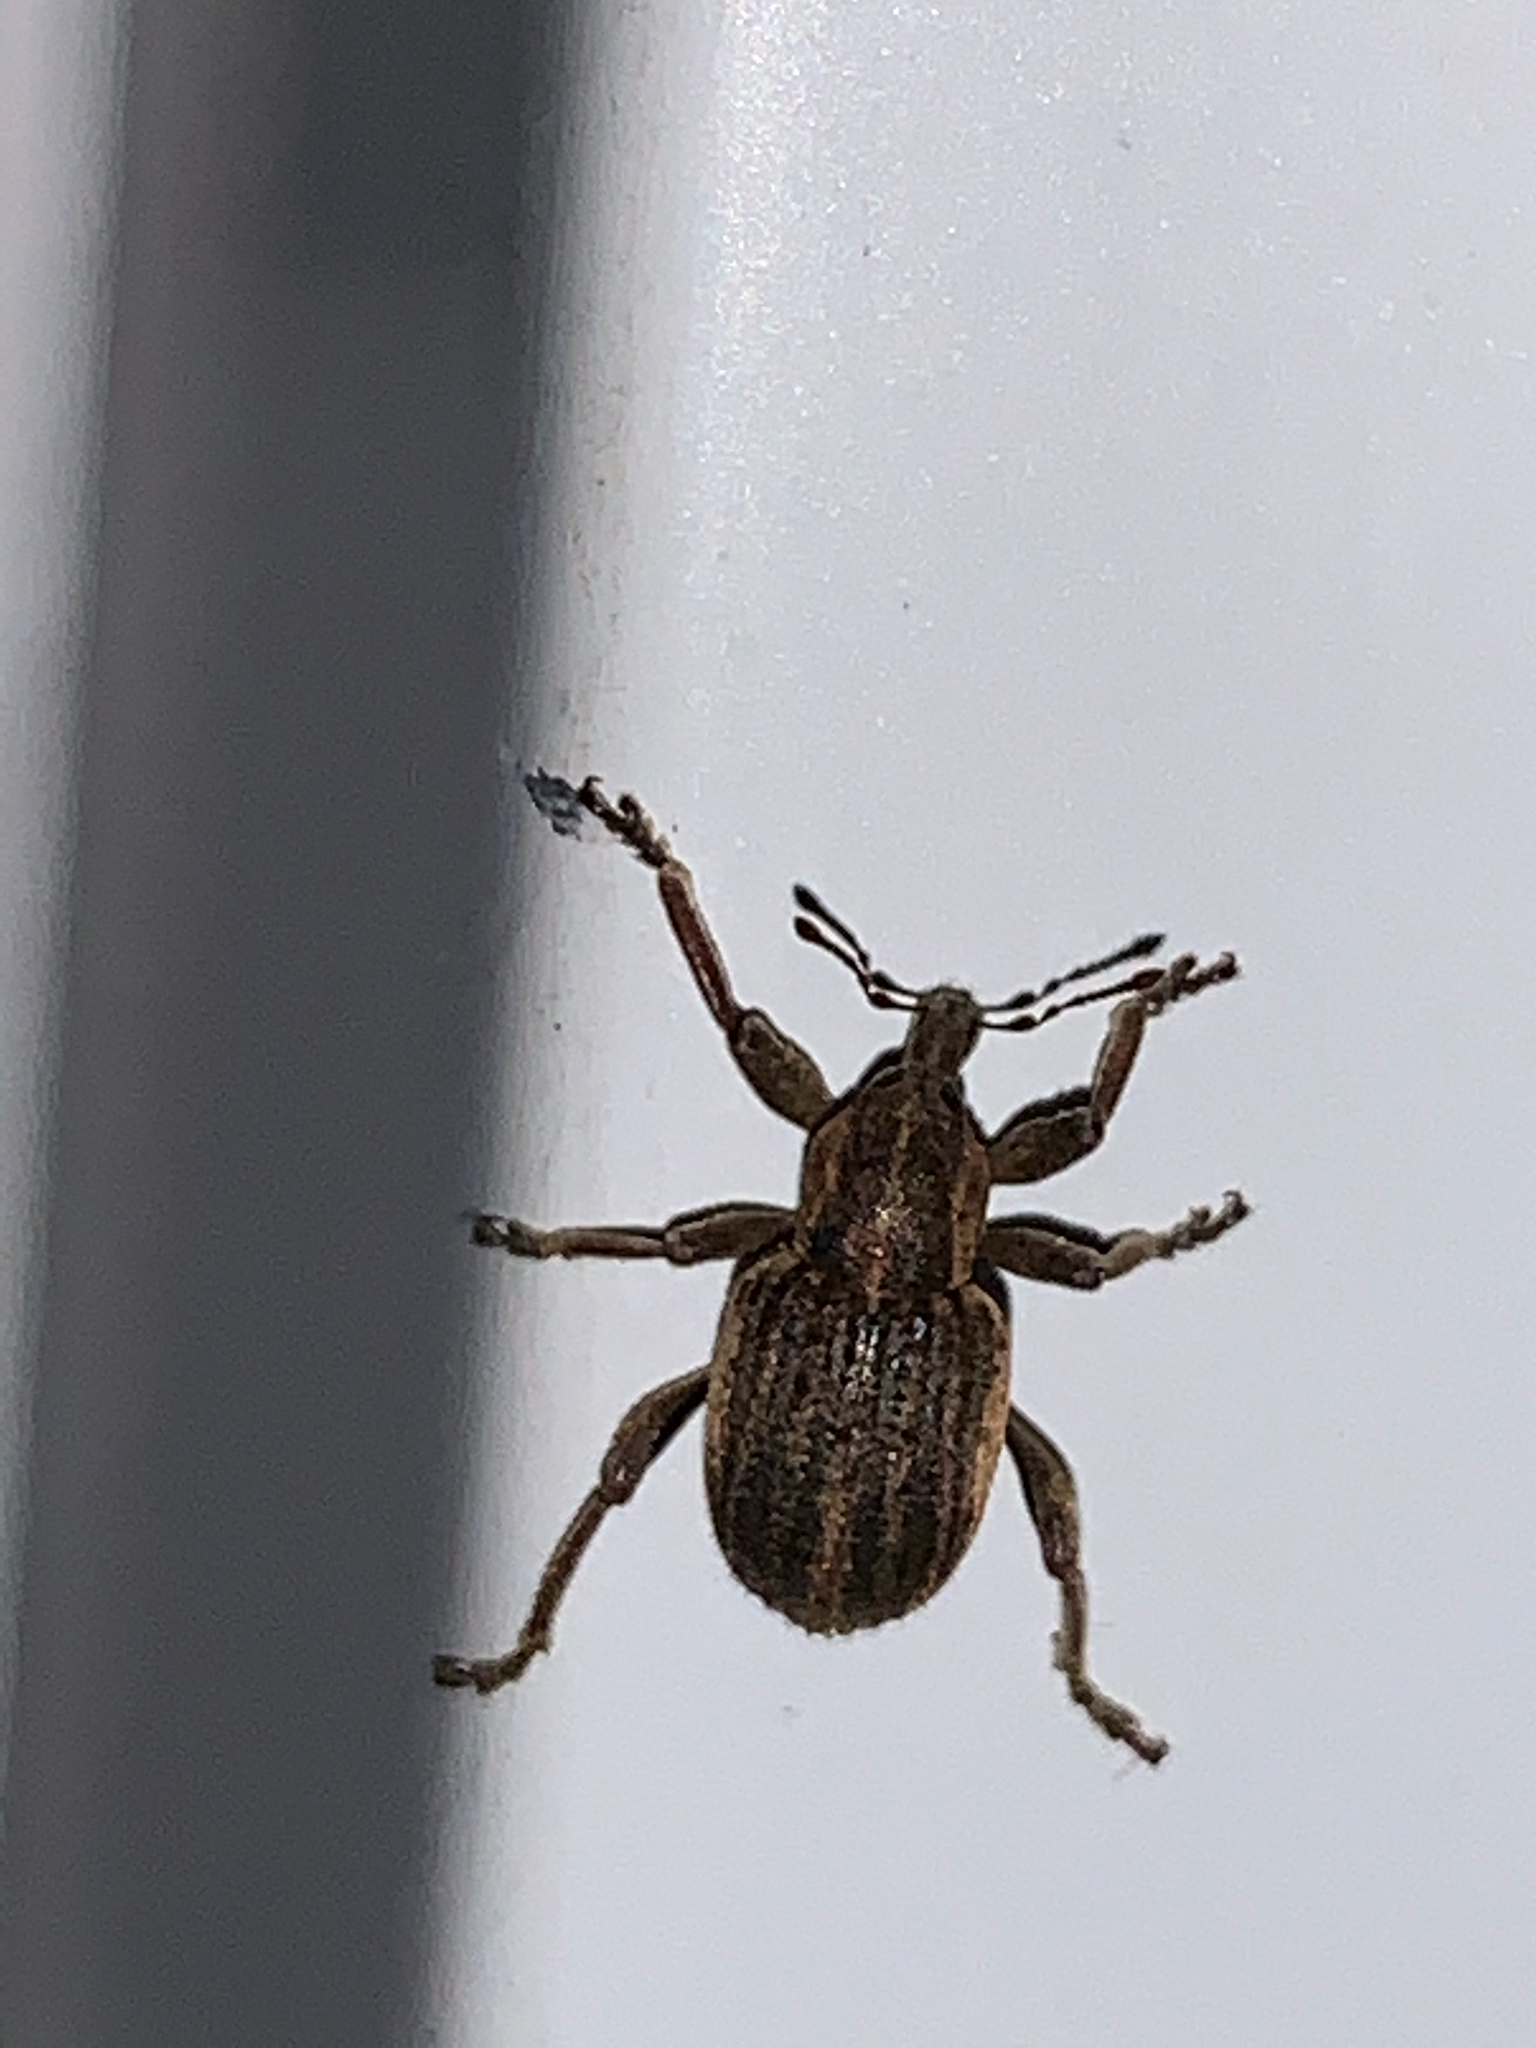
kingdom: Animalia
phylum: Arthropoda
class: Insecta
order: Coleoptera
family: Curculionidae
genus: Brachypera
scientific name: Brachypera zoilus
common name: Clover leaf weevil
